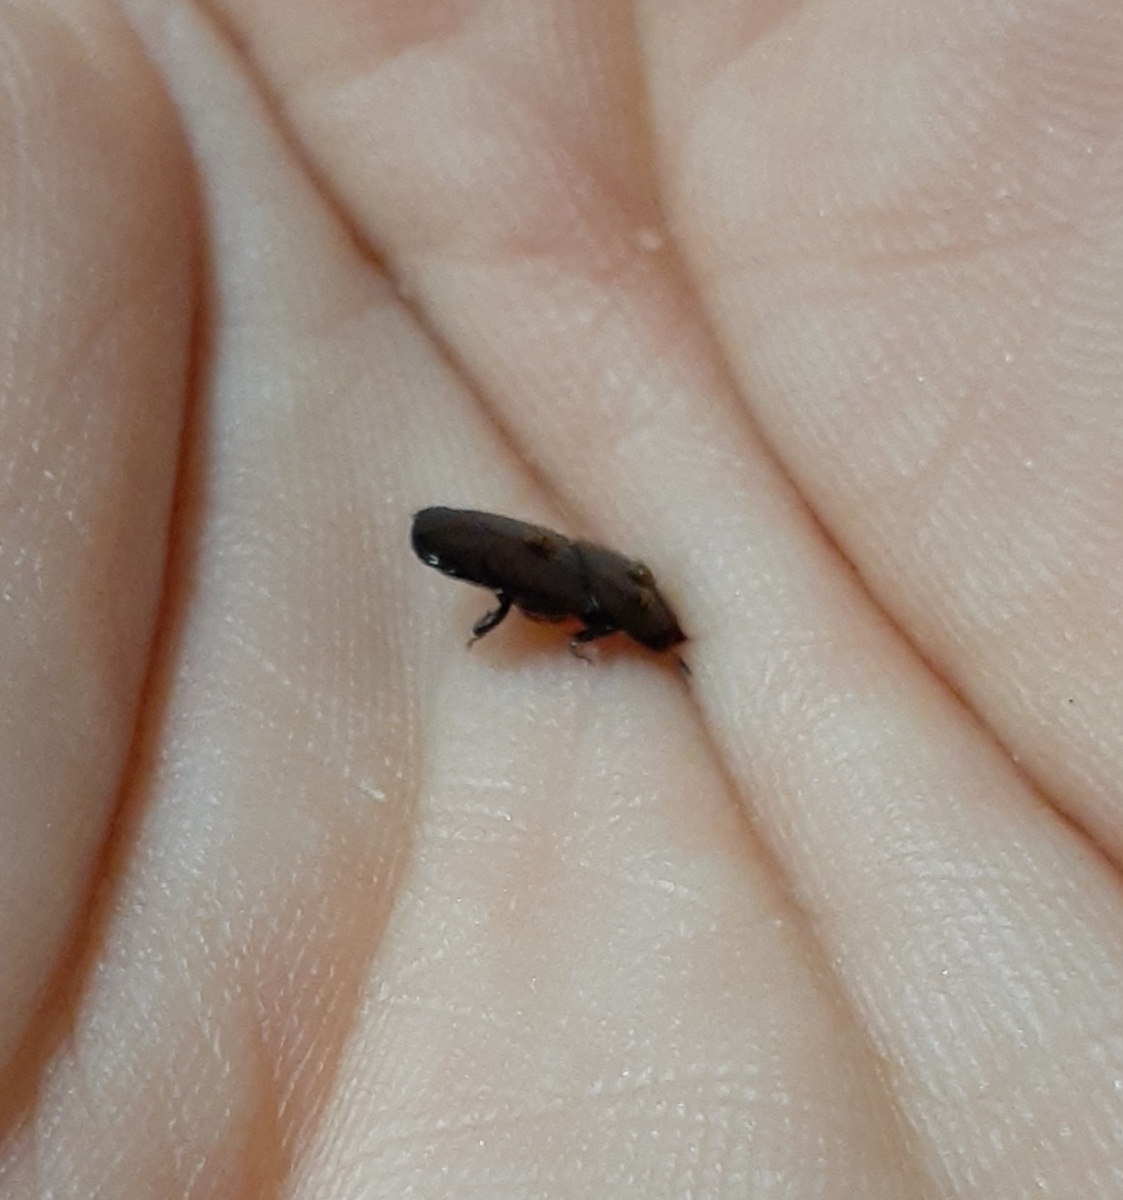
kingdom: Animalia
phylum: Arthropoda
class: Insecta
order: Coleoptera
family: Histeridae
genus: Hololepta
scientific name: Hololepta plana
